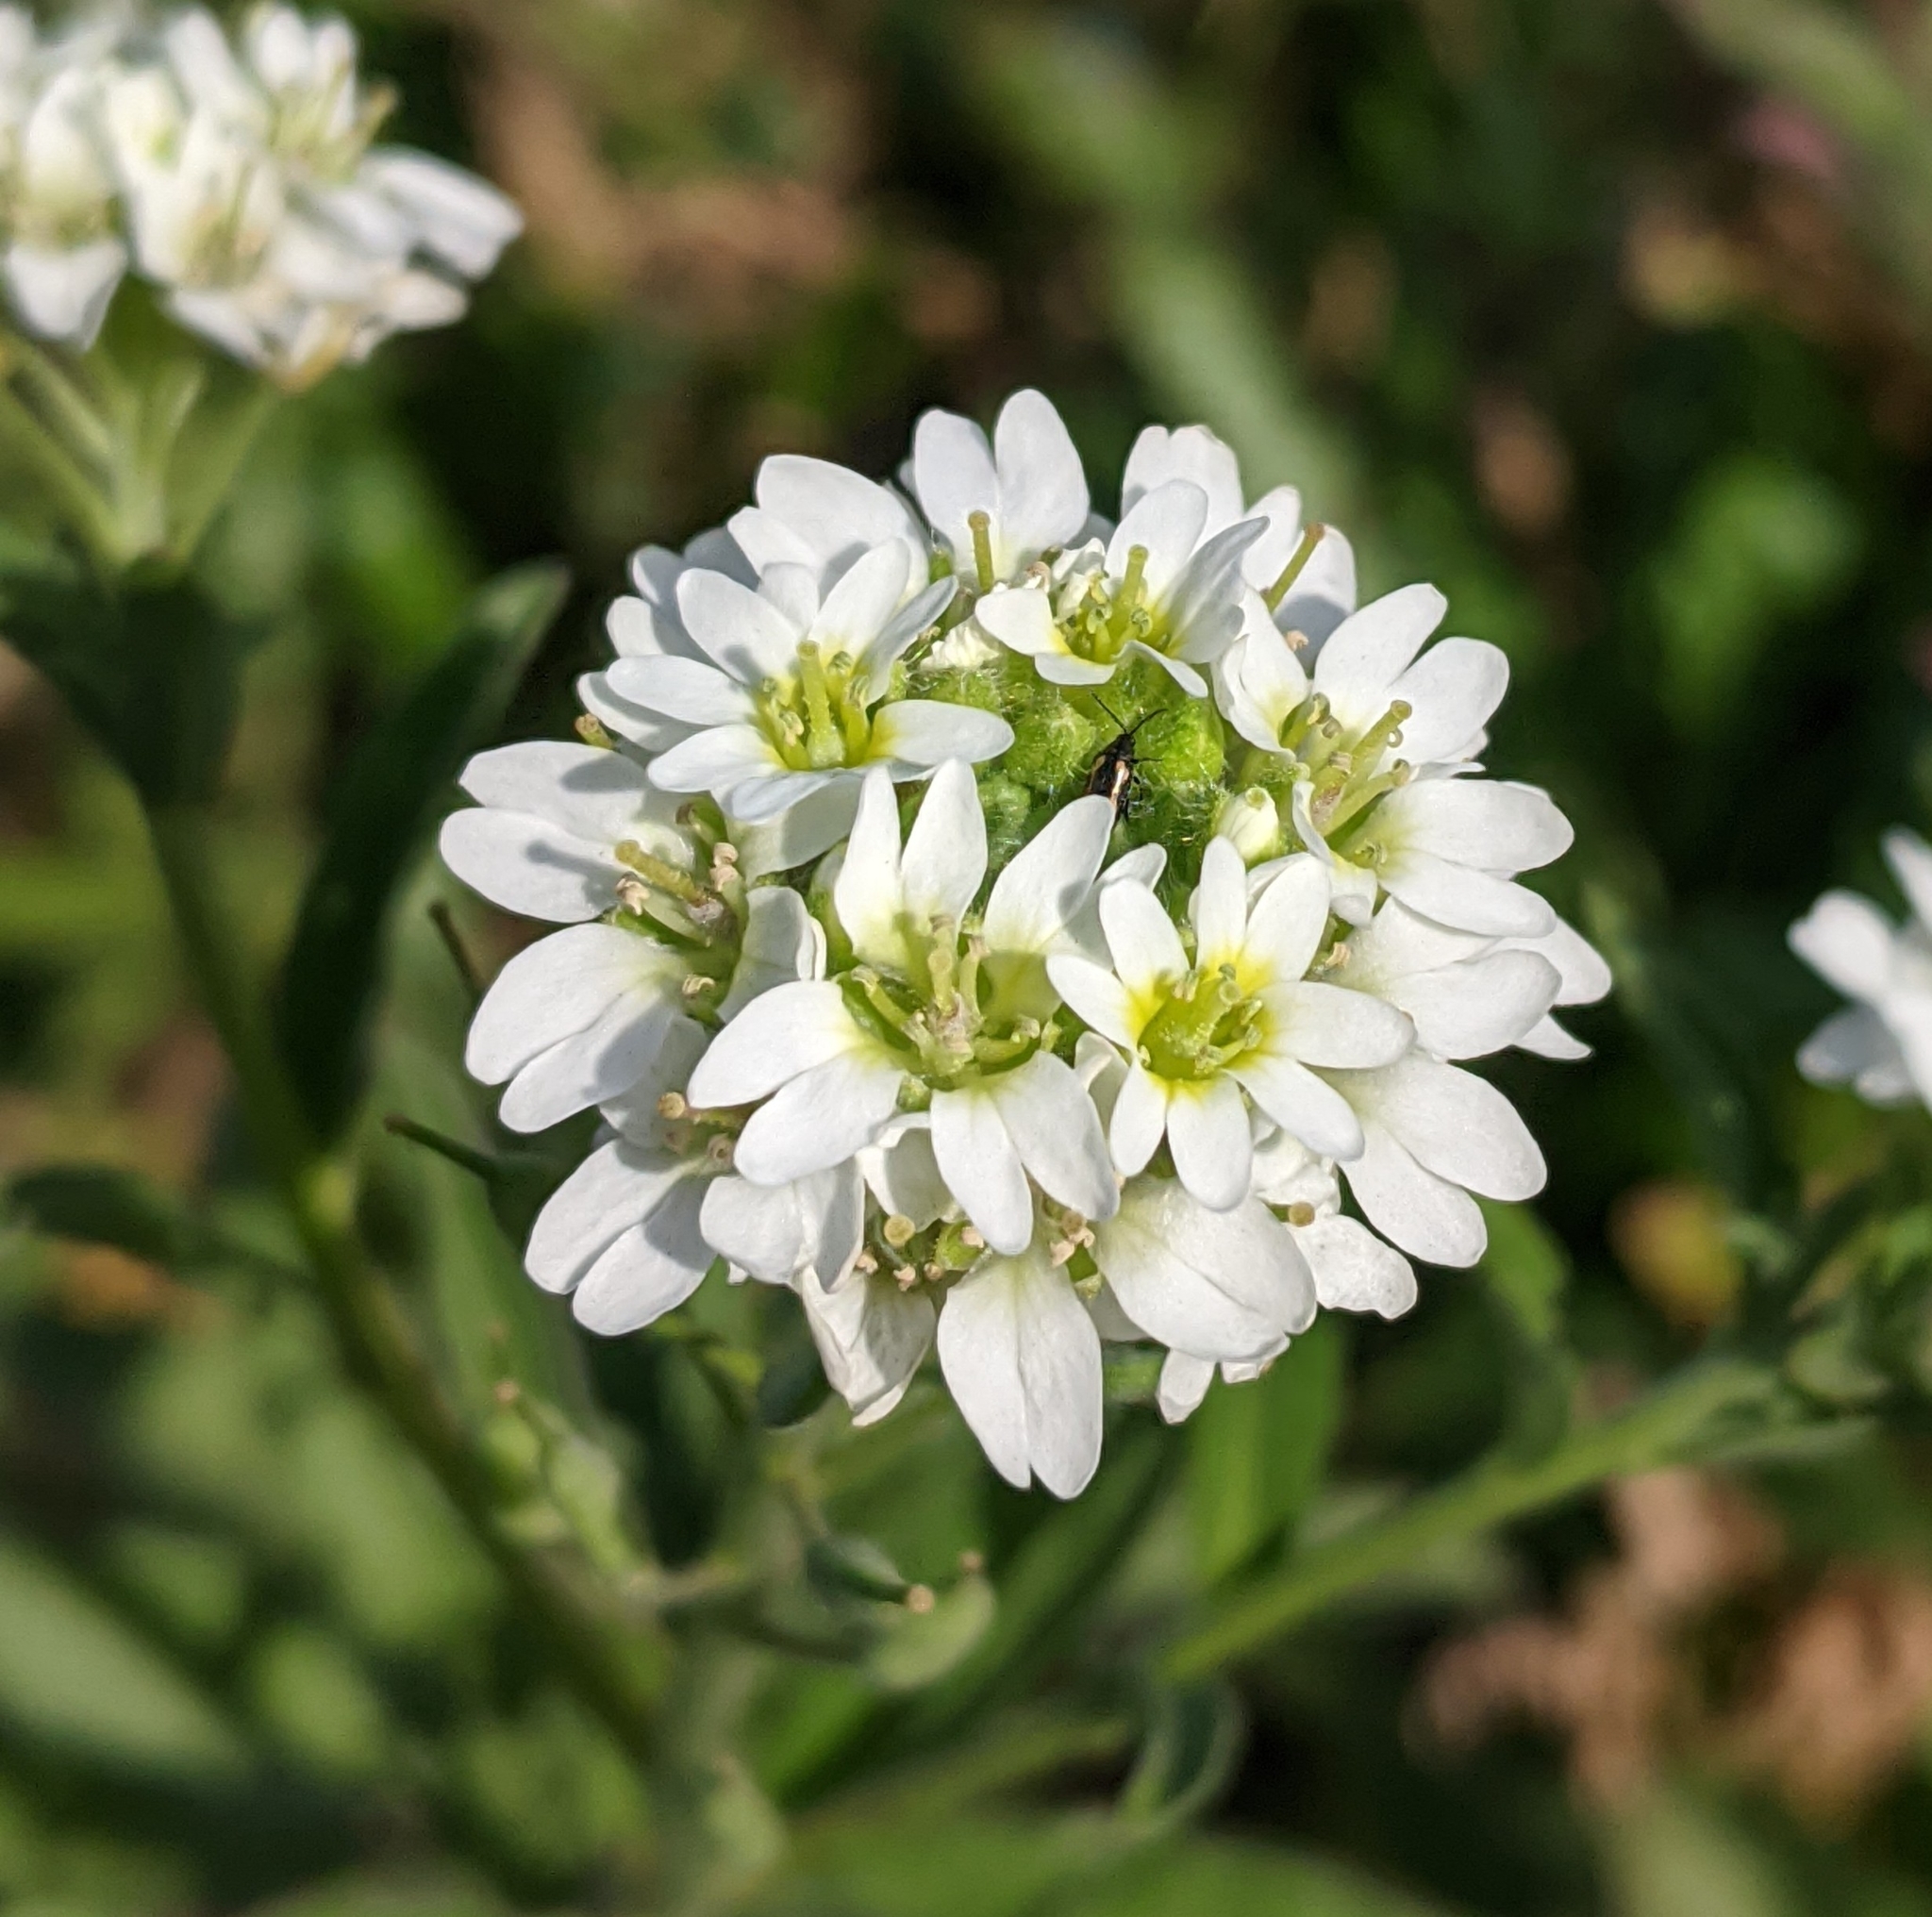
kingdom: Plantae
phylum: Tracheophyta
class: Magnoliopsida
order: Brassicales
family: Brassicaceae
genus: Berteroa
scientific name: Berteroa incana
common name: Hoary alison
